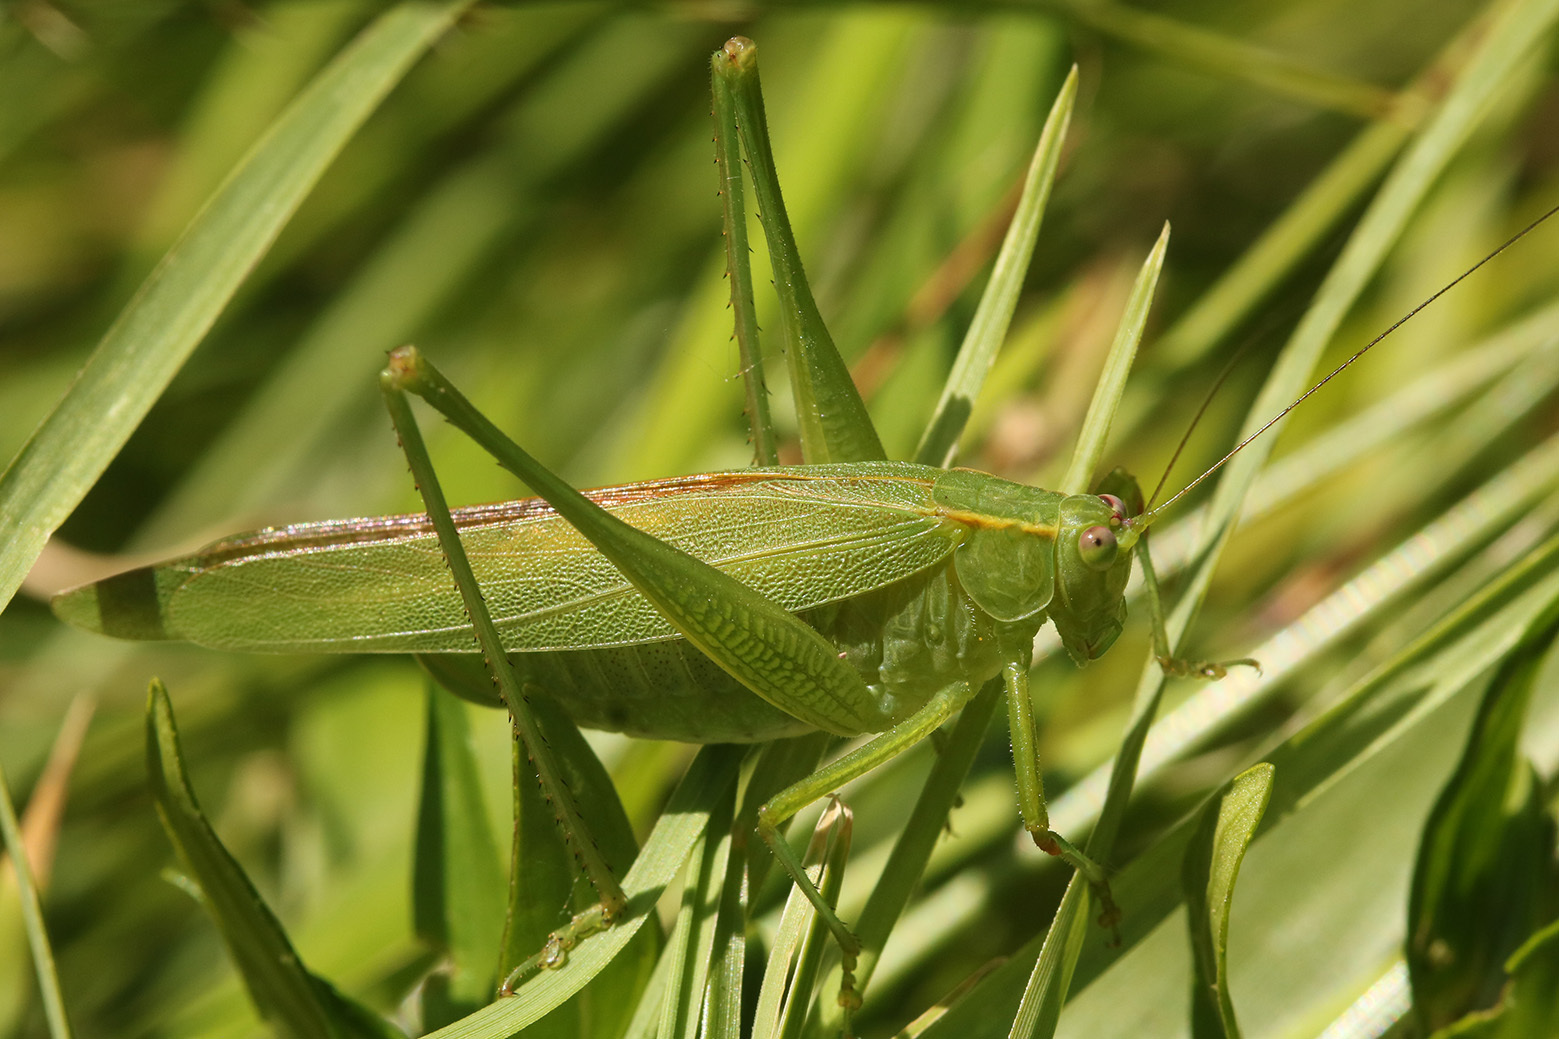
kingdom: Animalia
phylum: Arthropoda
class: Insecta
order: Orthoptera
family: Tettigoniidae
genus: Ligocatinus
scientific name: Ligocatinus spinatus
